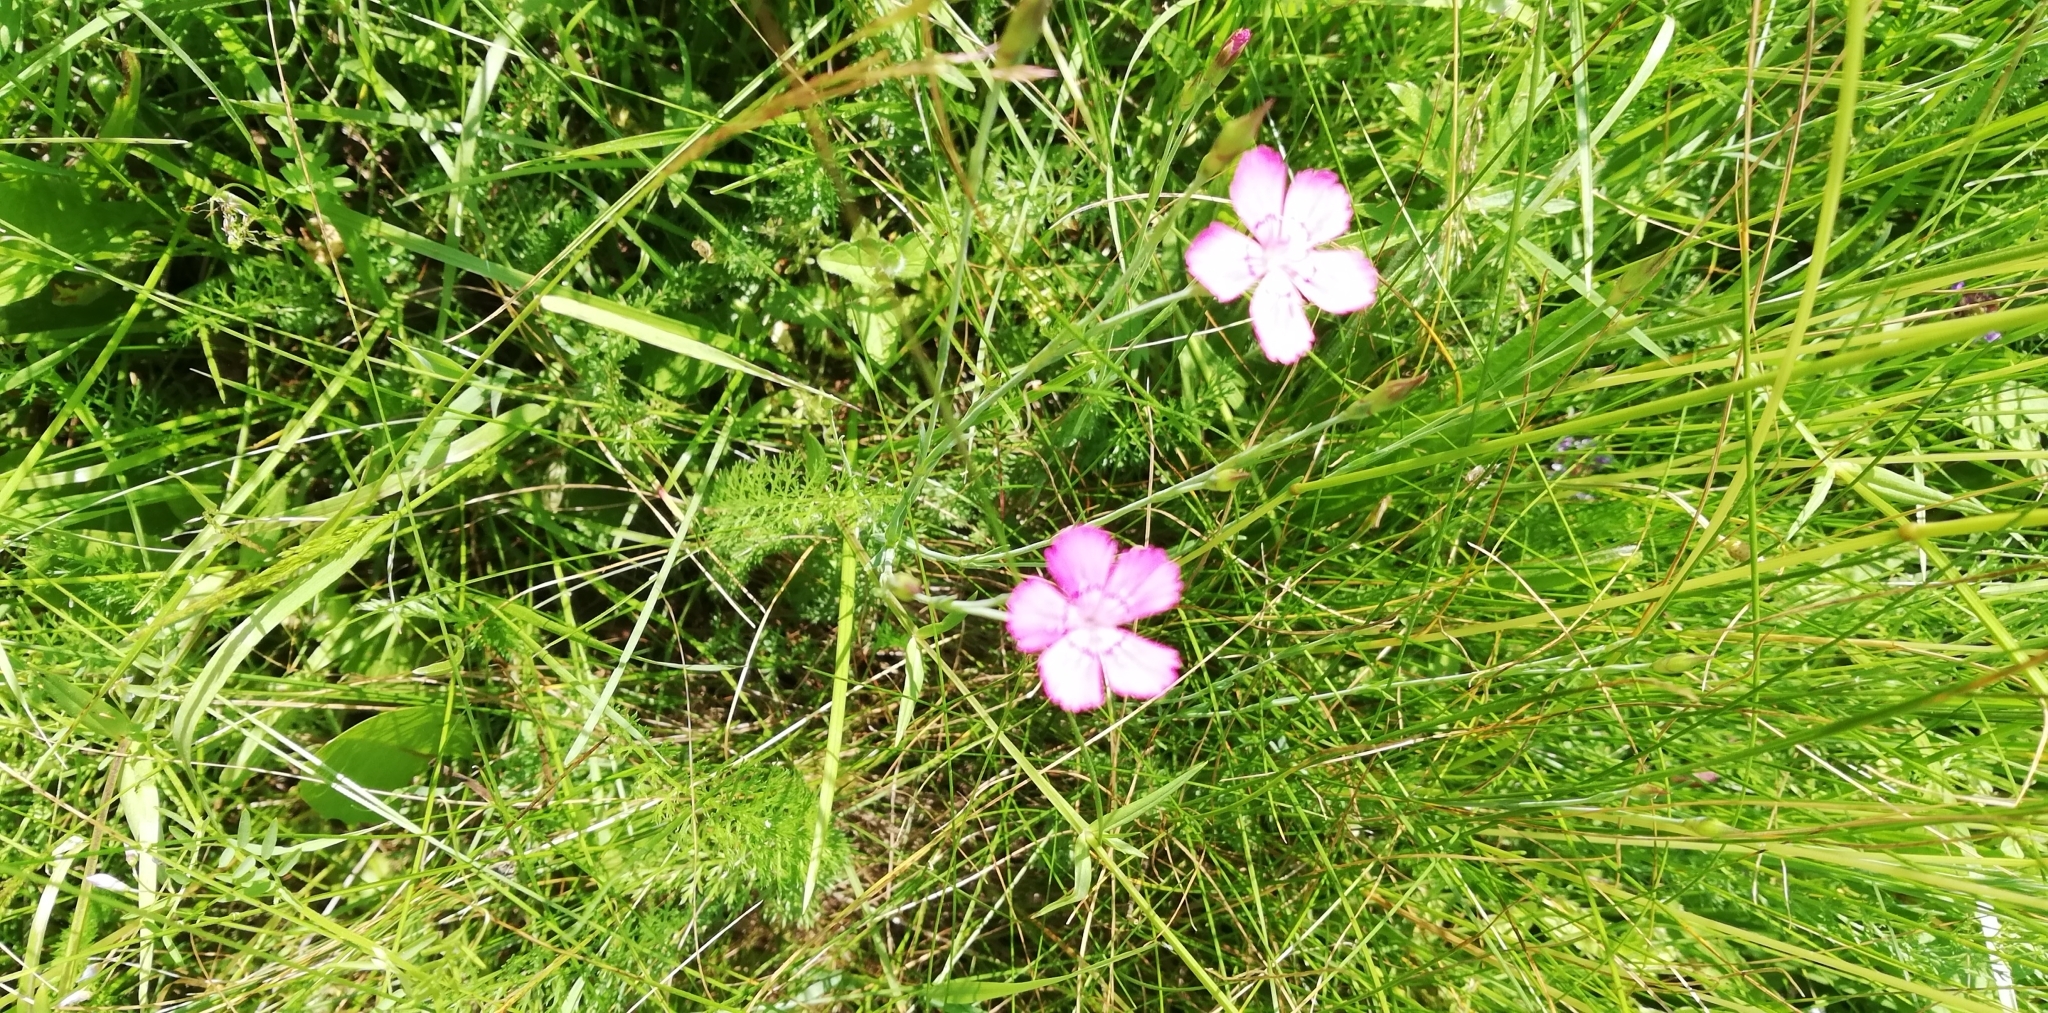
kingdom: Plantae
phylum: Tracheophyta
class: Magnoliopsida
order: Caryophyllales
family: Caryophyllaceae
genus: Dianthus
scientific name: Dianthus deltoides
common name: Maiden pink
